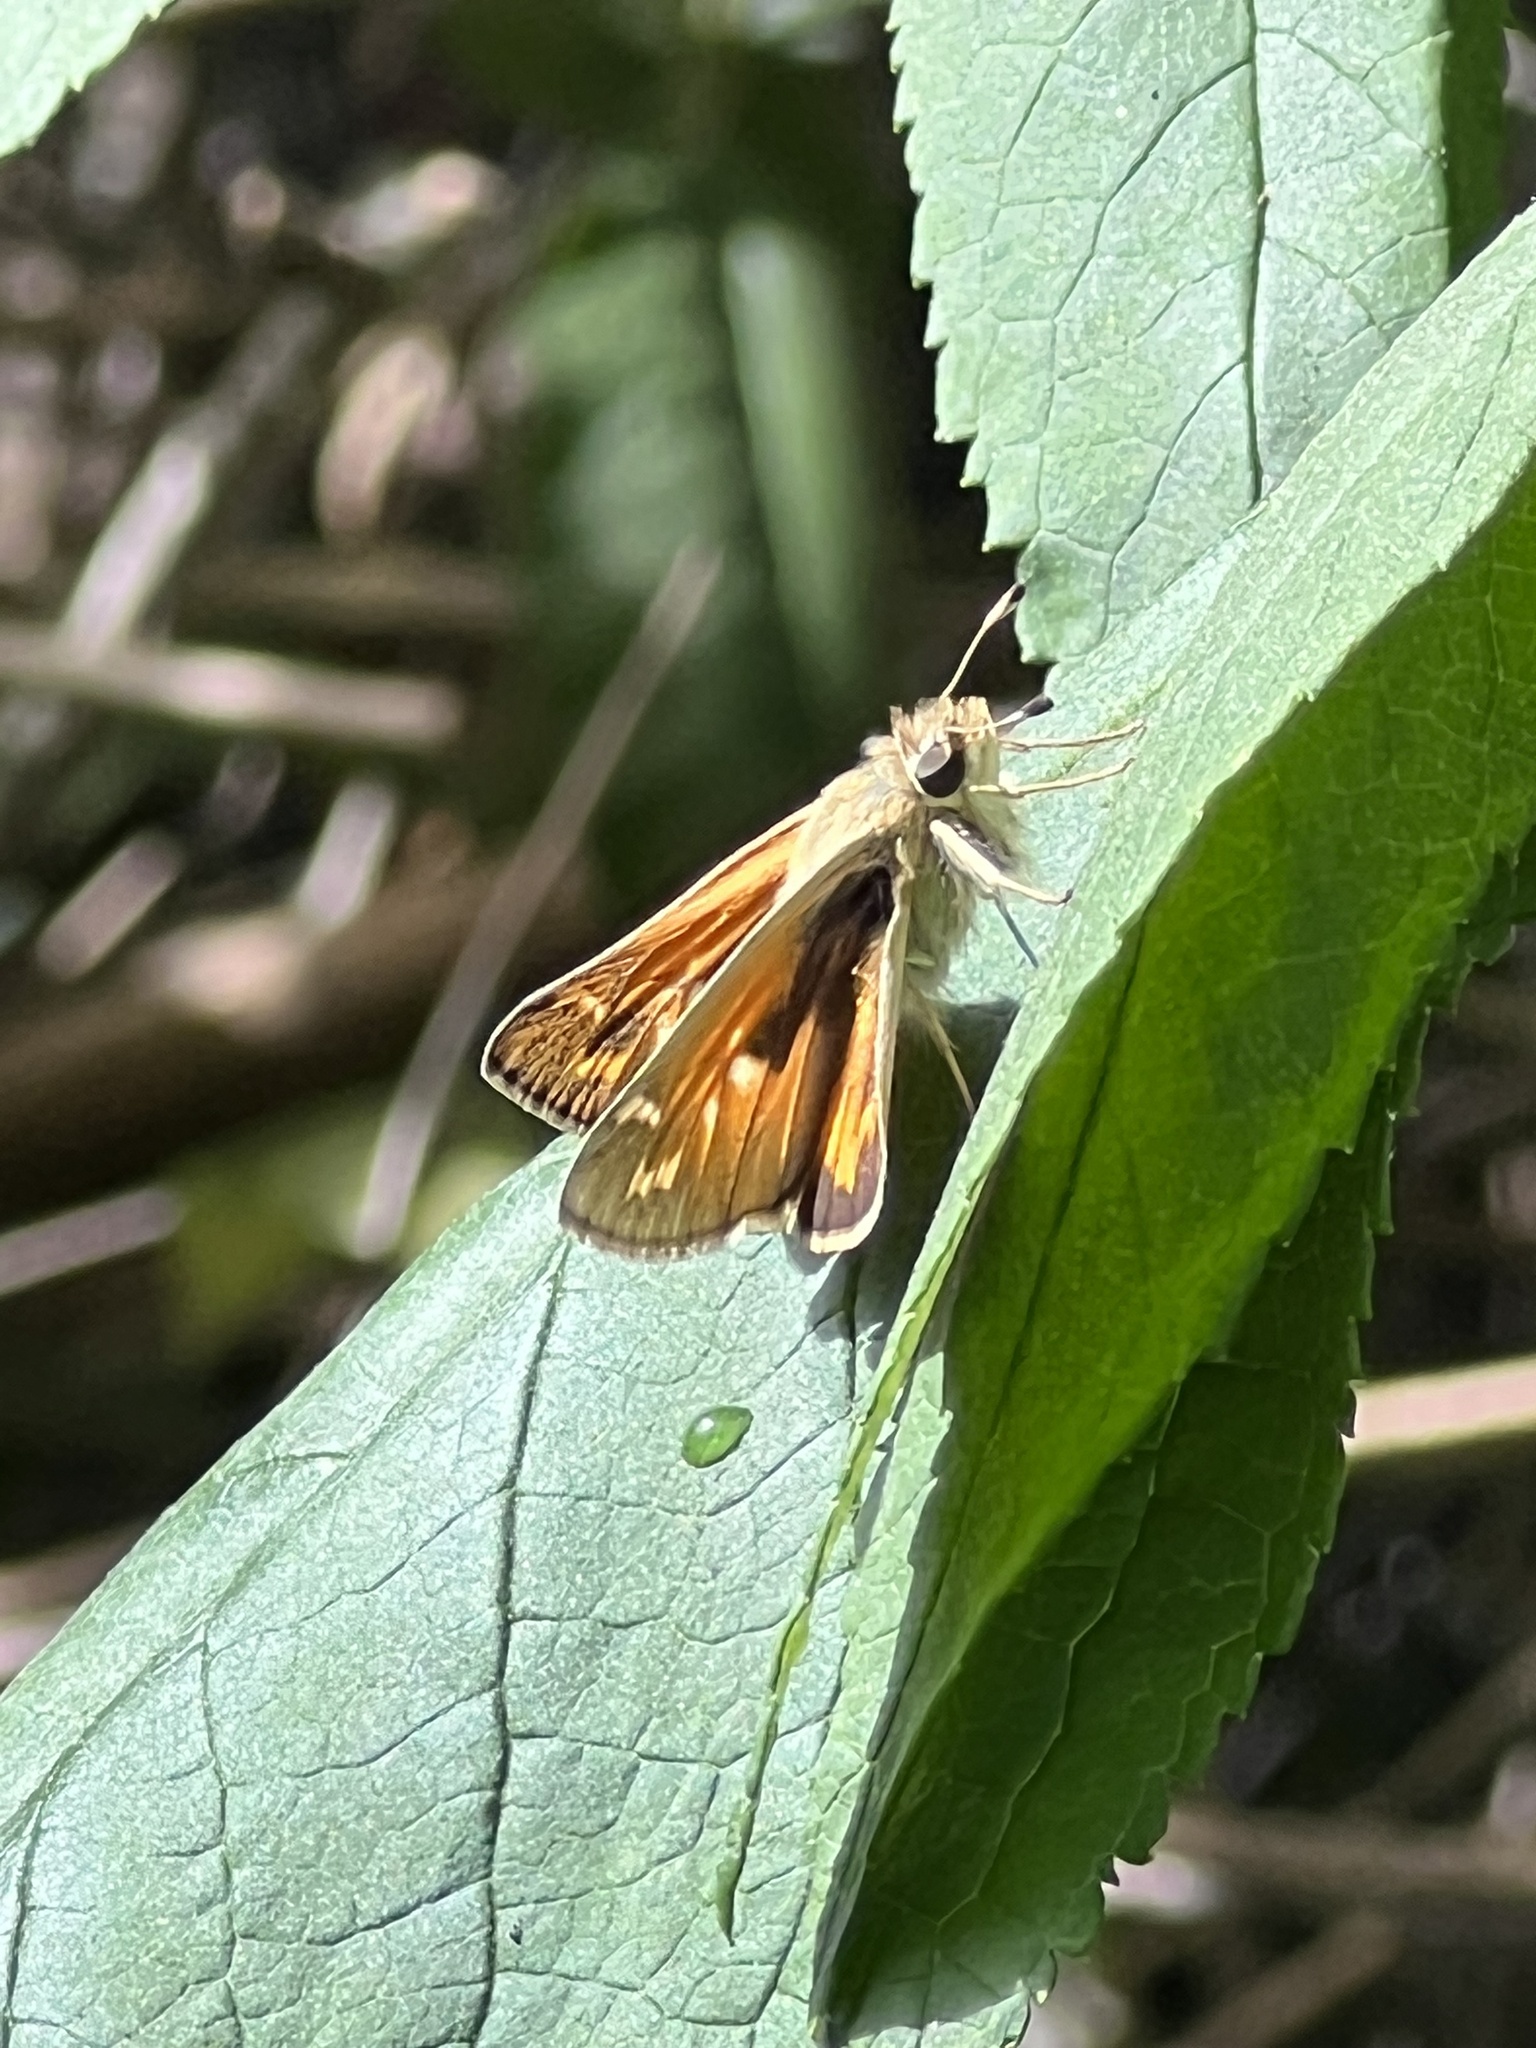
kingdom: Animalia
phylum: Arthropoda
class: Insecta
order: Lepidoptera
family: Hesperiidae
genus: Atalopedes
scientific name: Atalopedes campestris
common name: Sachem
